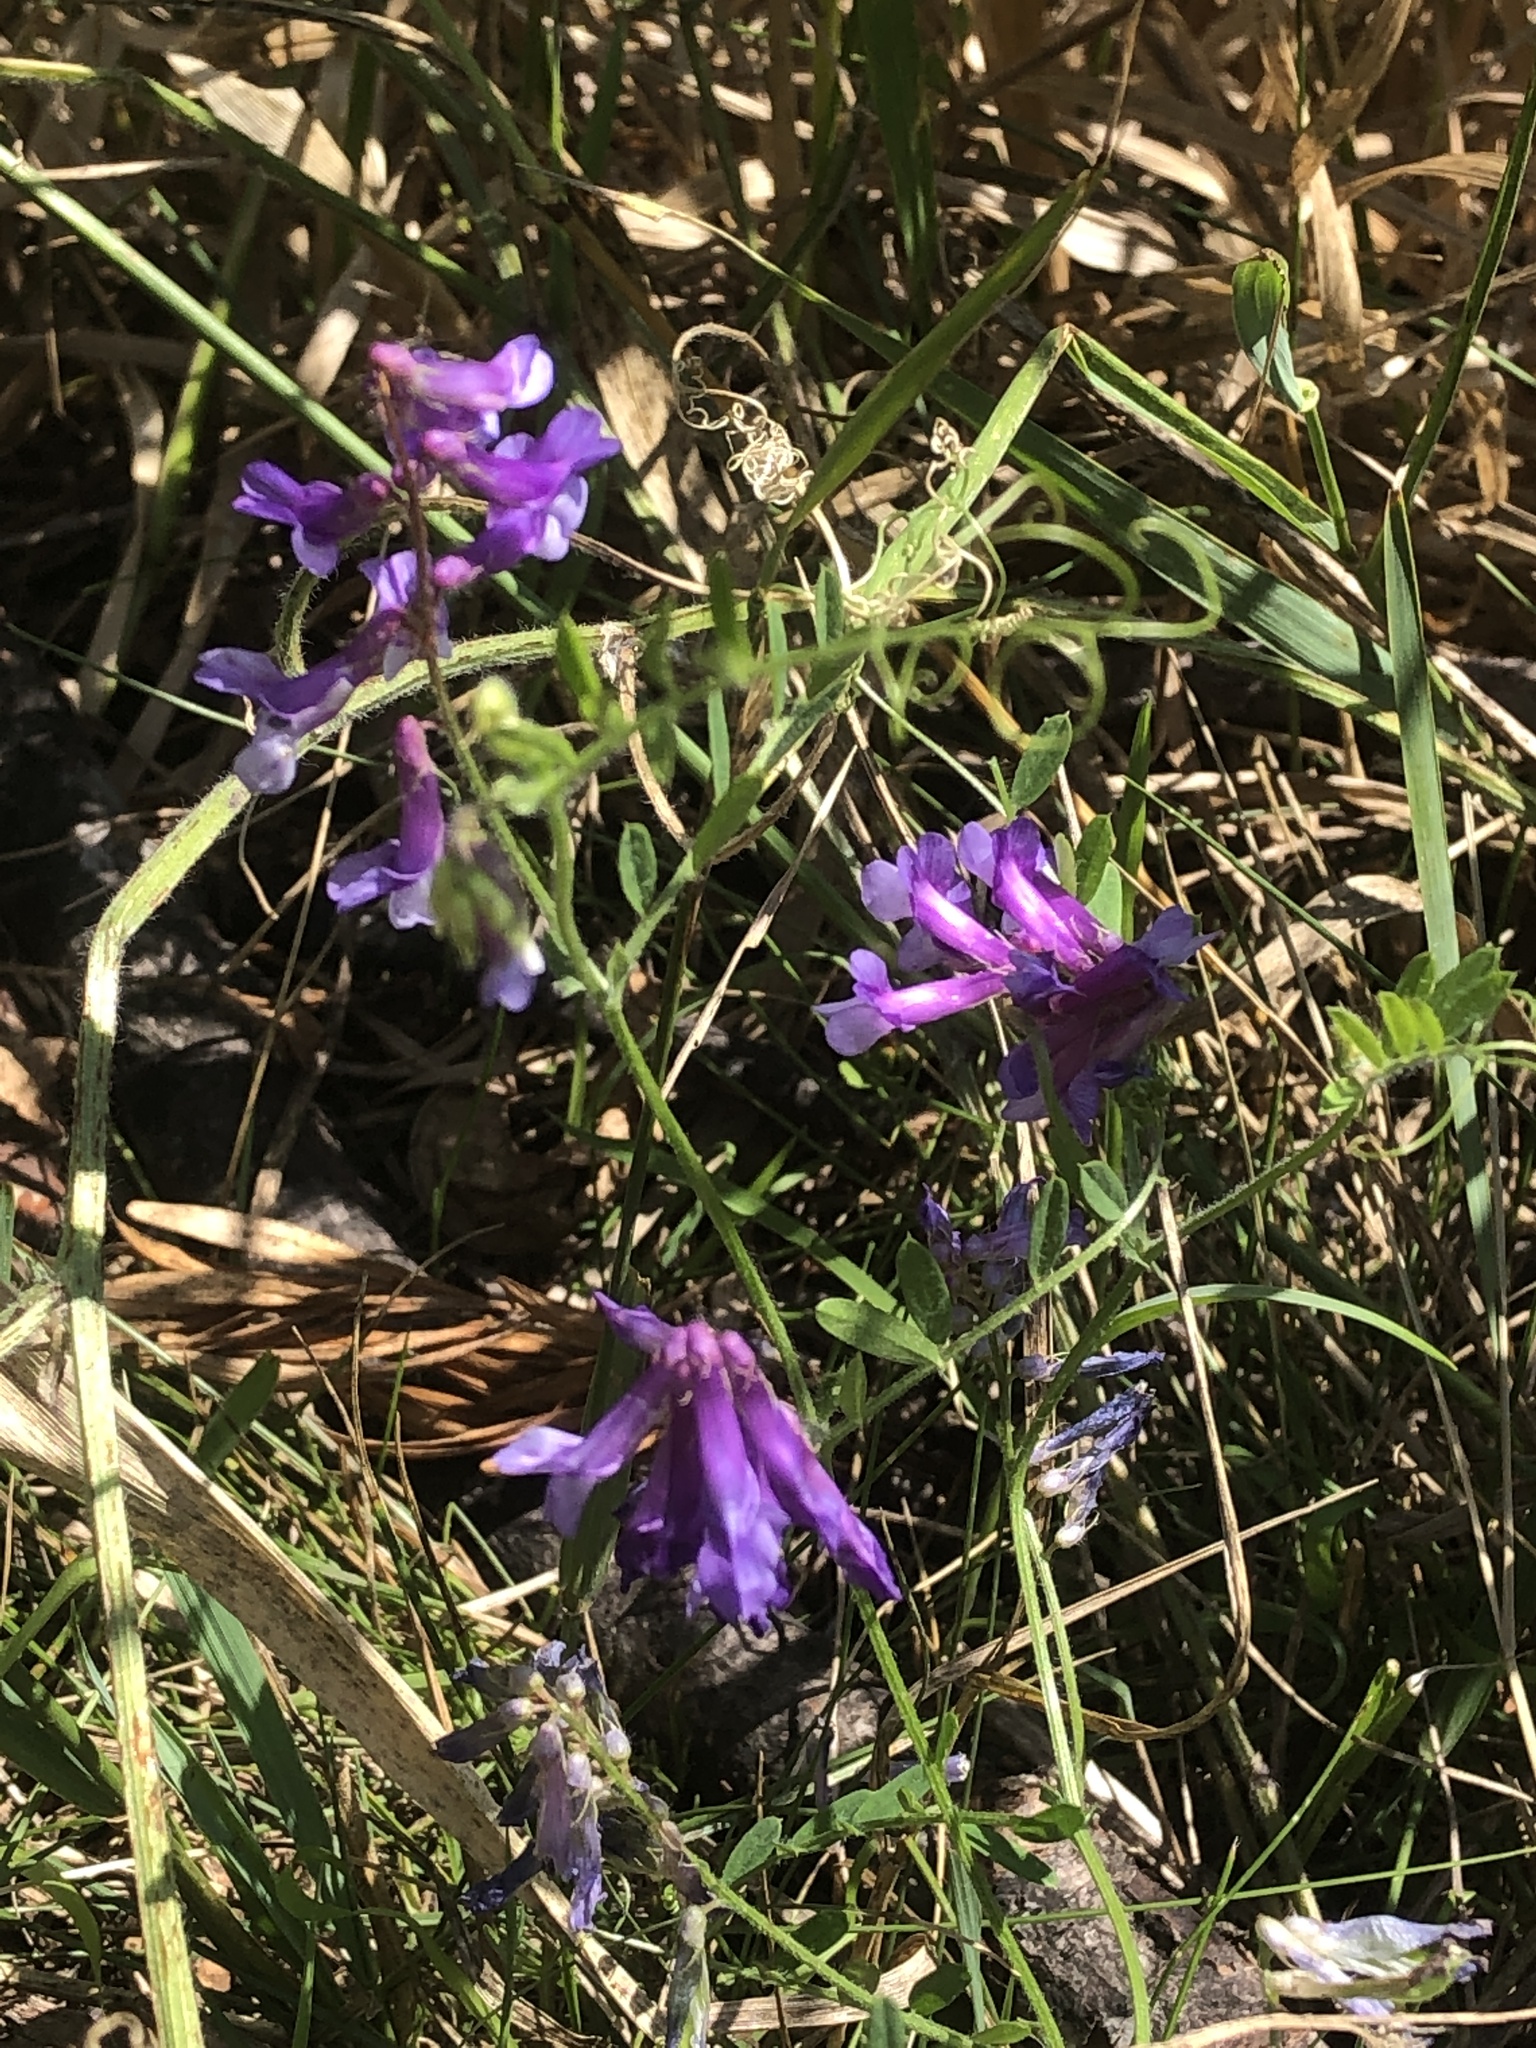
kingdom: Plantae
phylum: Tracheophyta
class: Magnoliopsida
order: Fabales
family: Fabaceae
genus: Vicia
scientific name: Vicia villosa
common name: Fodder vetch
